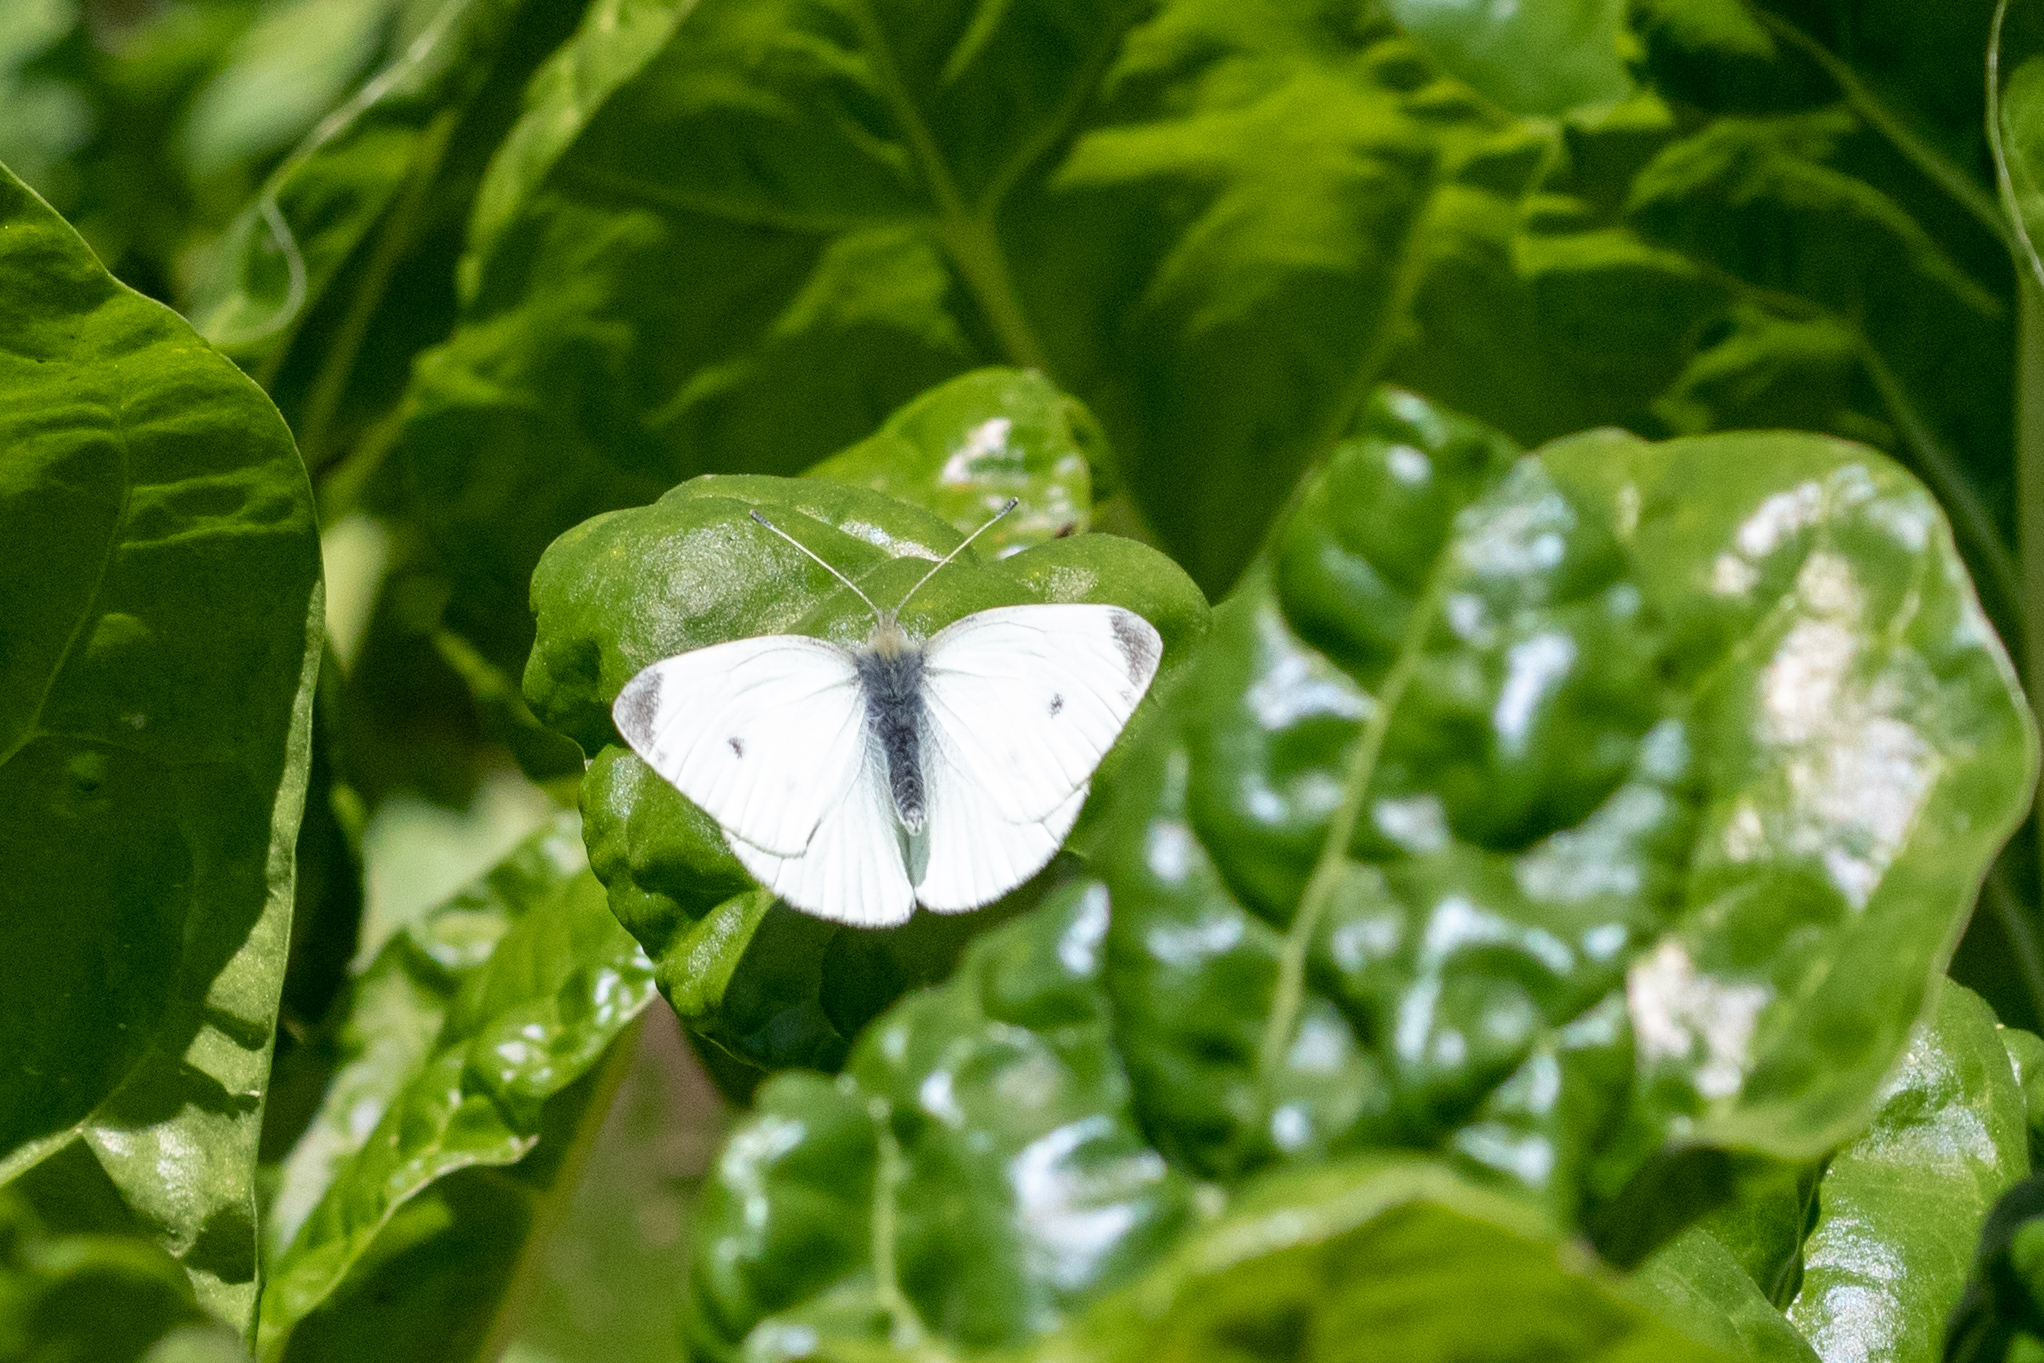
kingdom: Animalia
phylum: Arthropoda
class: Insecta
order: Lepidoptera
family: Pieridae
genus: Pieris
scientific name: Pieris rapae
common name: Small white
